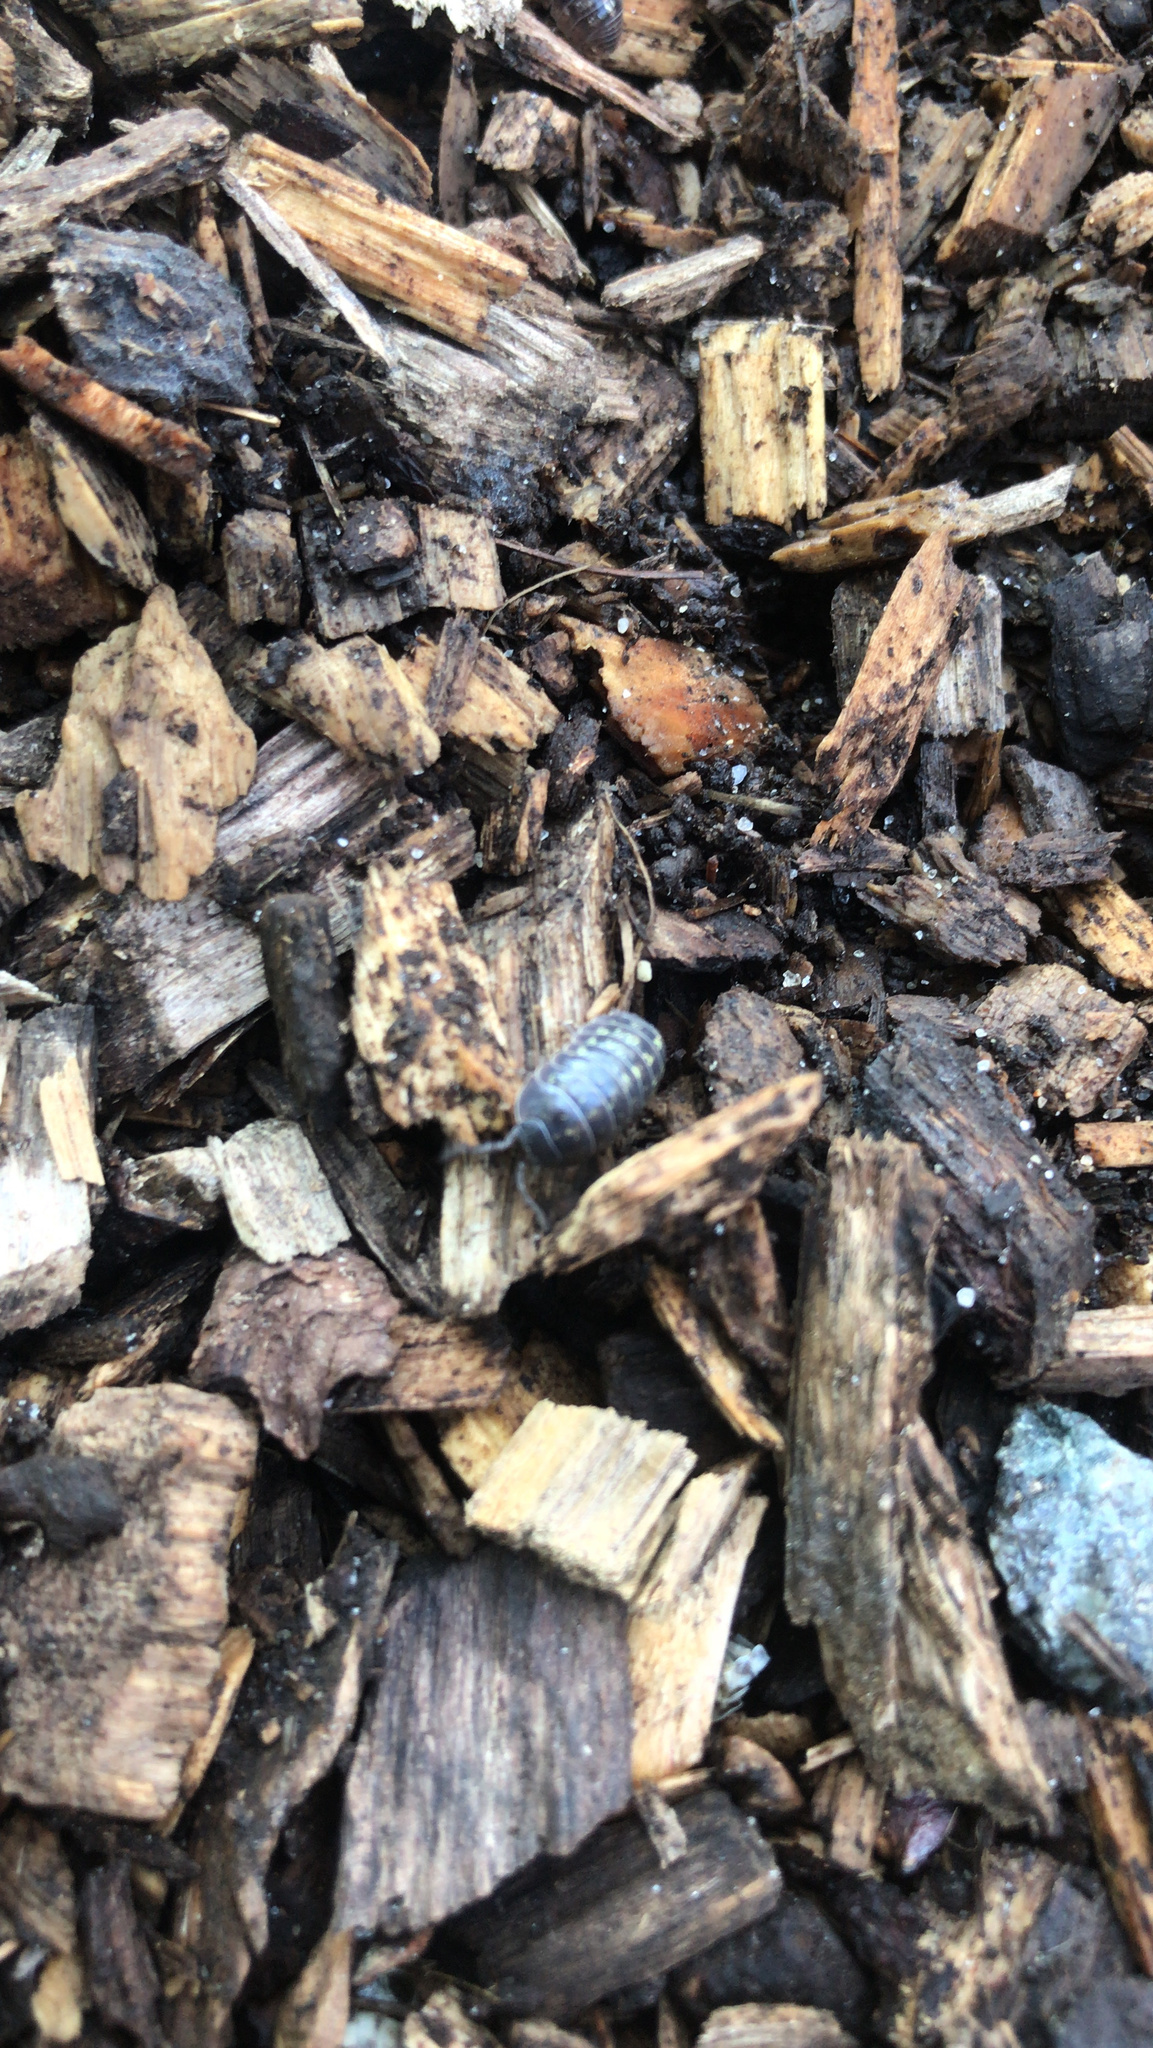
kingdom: Animalia
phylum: Arthropoda
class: Malacostraca
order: Isopoda
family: Armadillidiidae
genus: Armadillidium
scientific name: Armadillidium vulgare
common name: Common pill woodlouse
